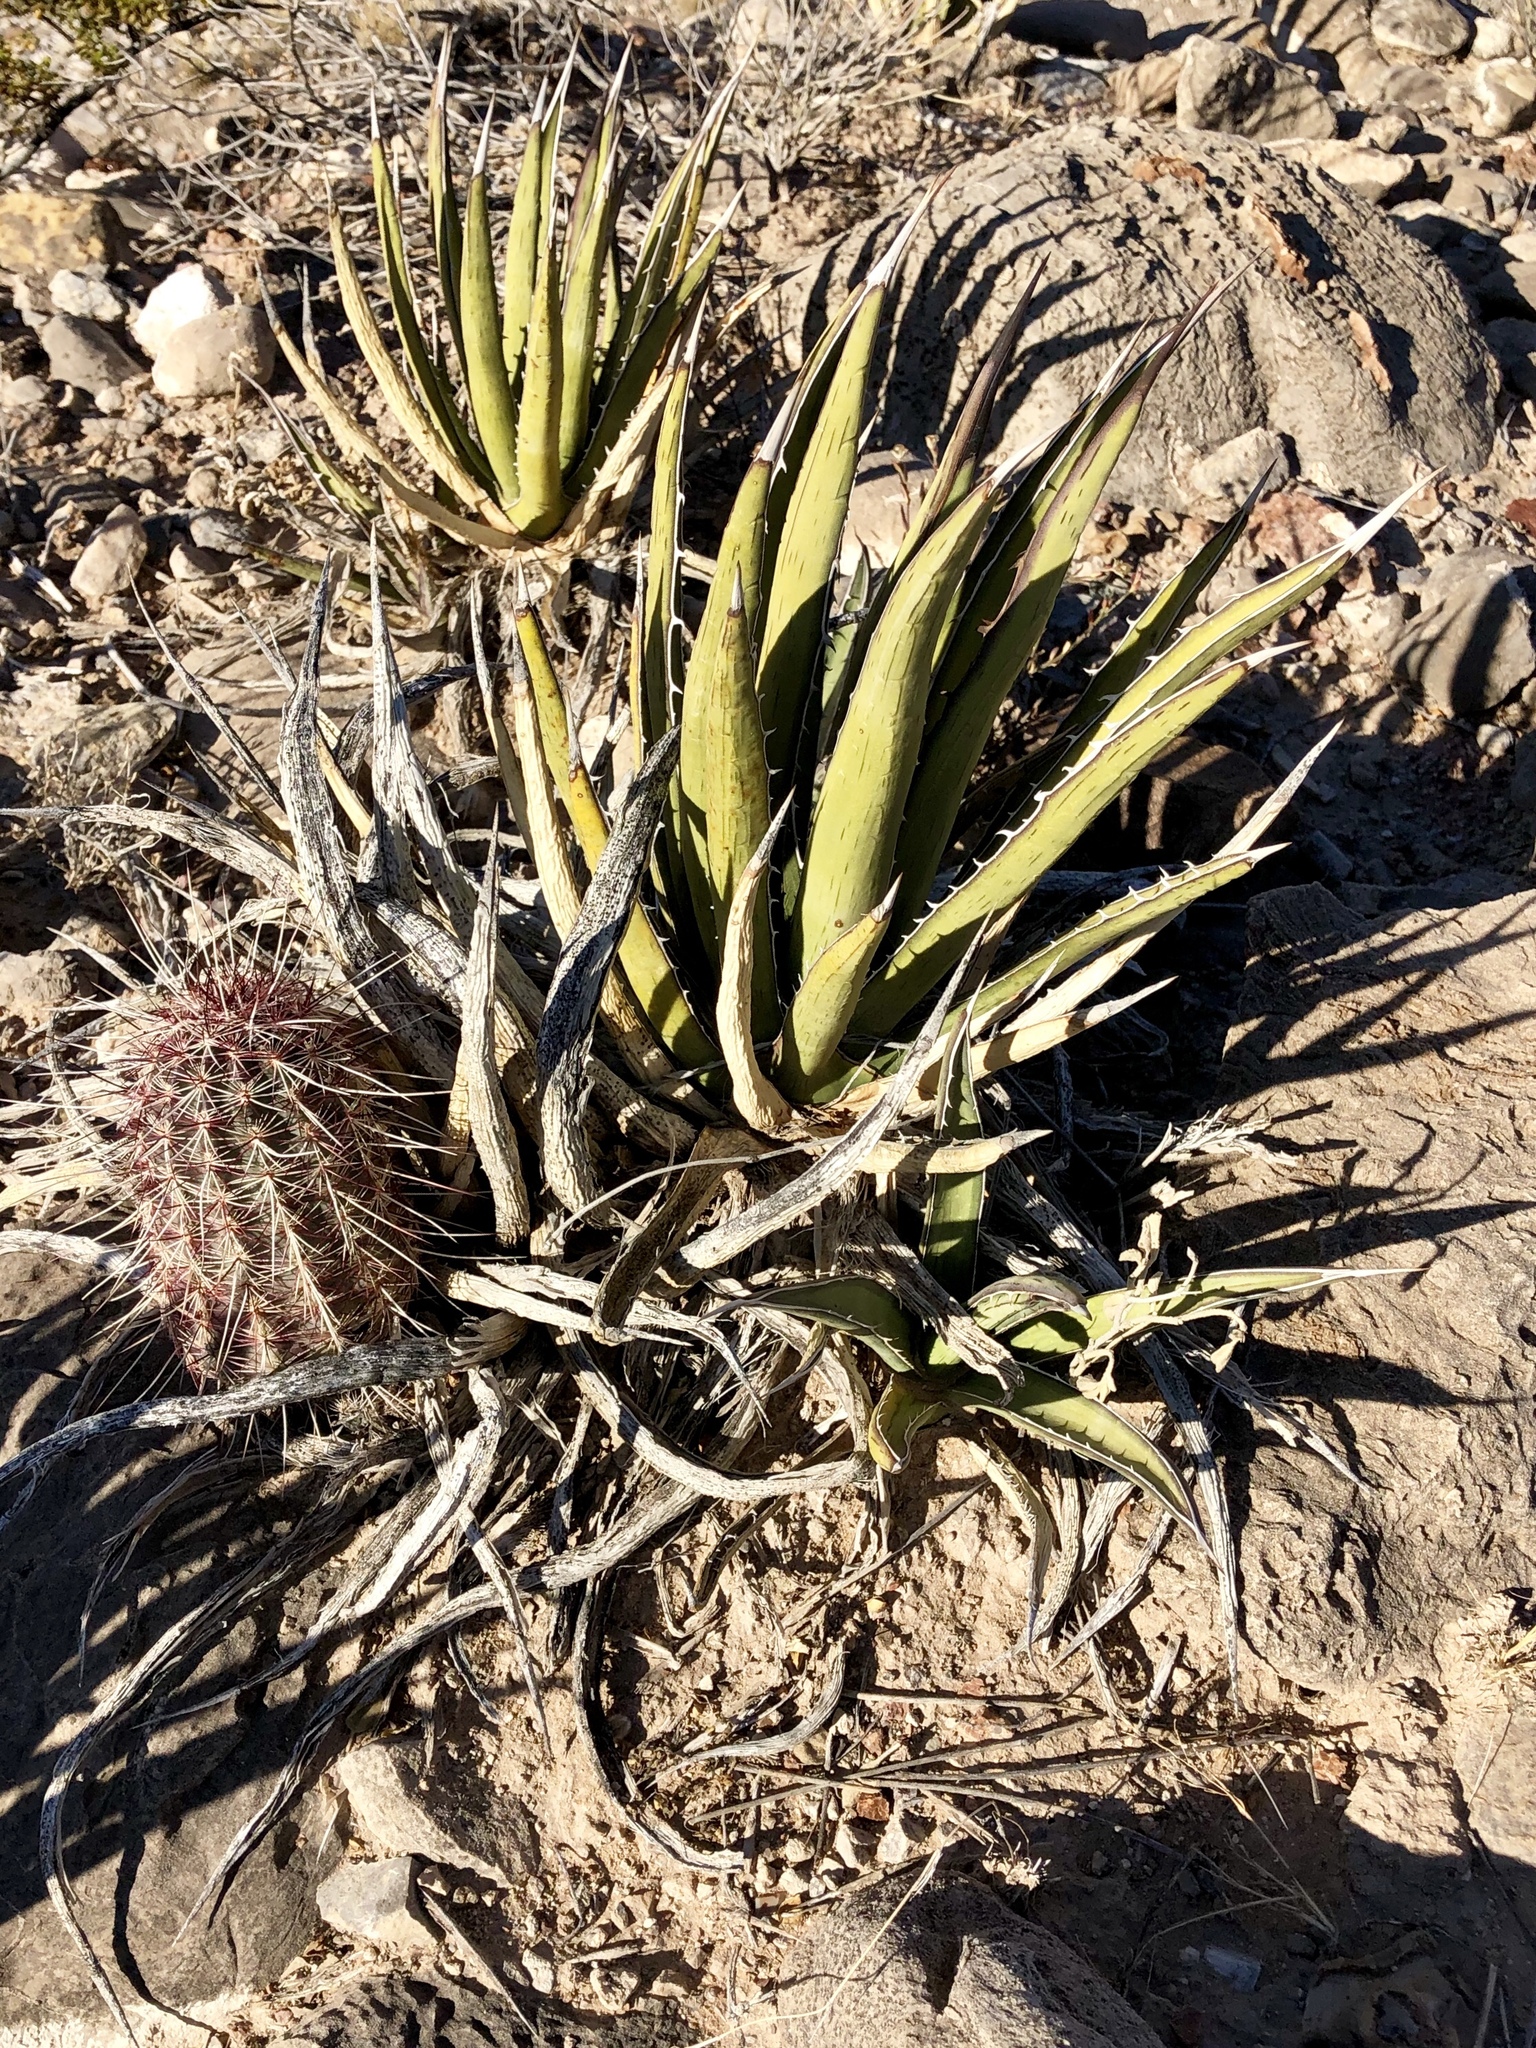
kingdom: Plantae
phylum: Tracheophyta
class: Liliopsida
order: Asparagales
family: Asparagaceae
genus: Agave
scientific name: Agave lechuguilla
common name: Lecheguilla agave
